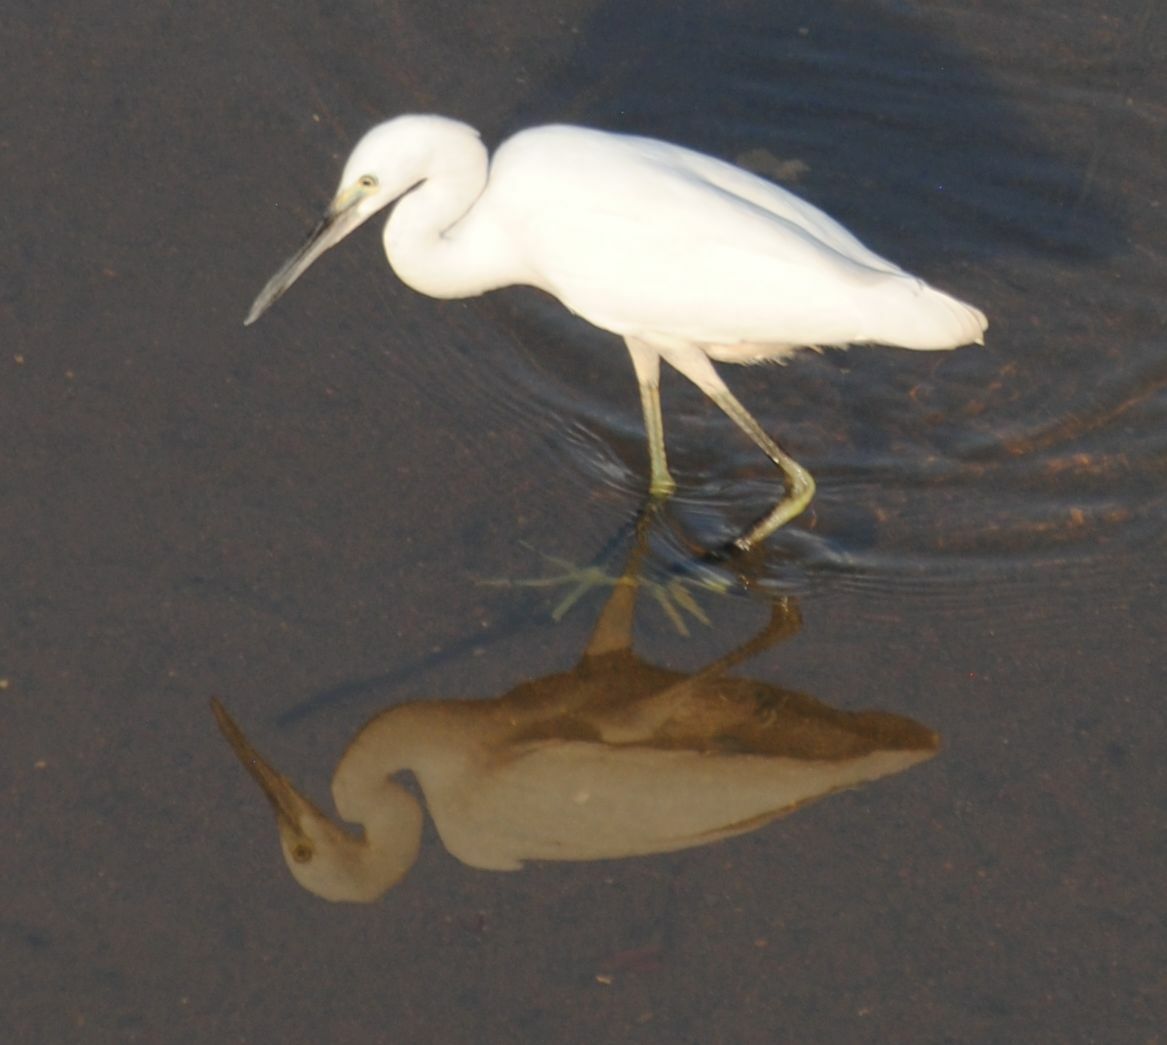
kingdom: Animalia
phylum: Chordata
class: Aves
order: Pelecaniformes
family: Ardeidae
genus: Egretta
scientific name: Egretta garzetta
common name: Little egret
